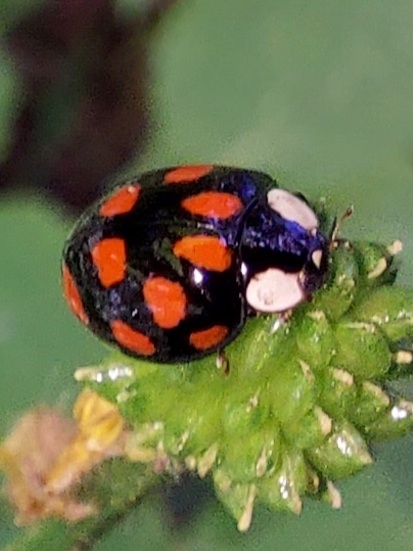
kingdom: Animalia
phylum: Arthropoda
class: Insecta
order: Coleoptera
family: Coccinellidae
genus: Harmonia
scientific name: Harmonia axyridis
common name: Harlequin ladybird
